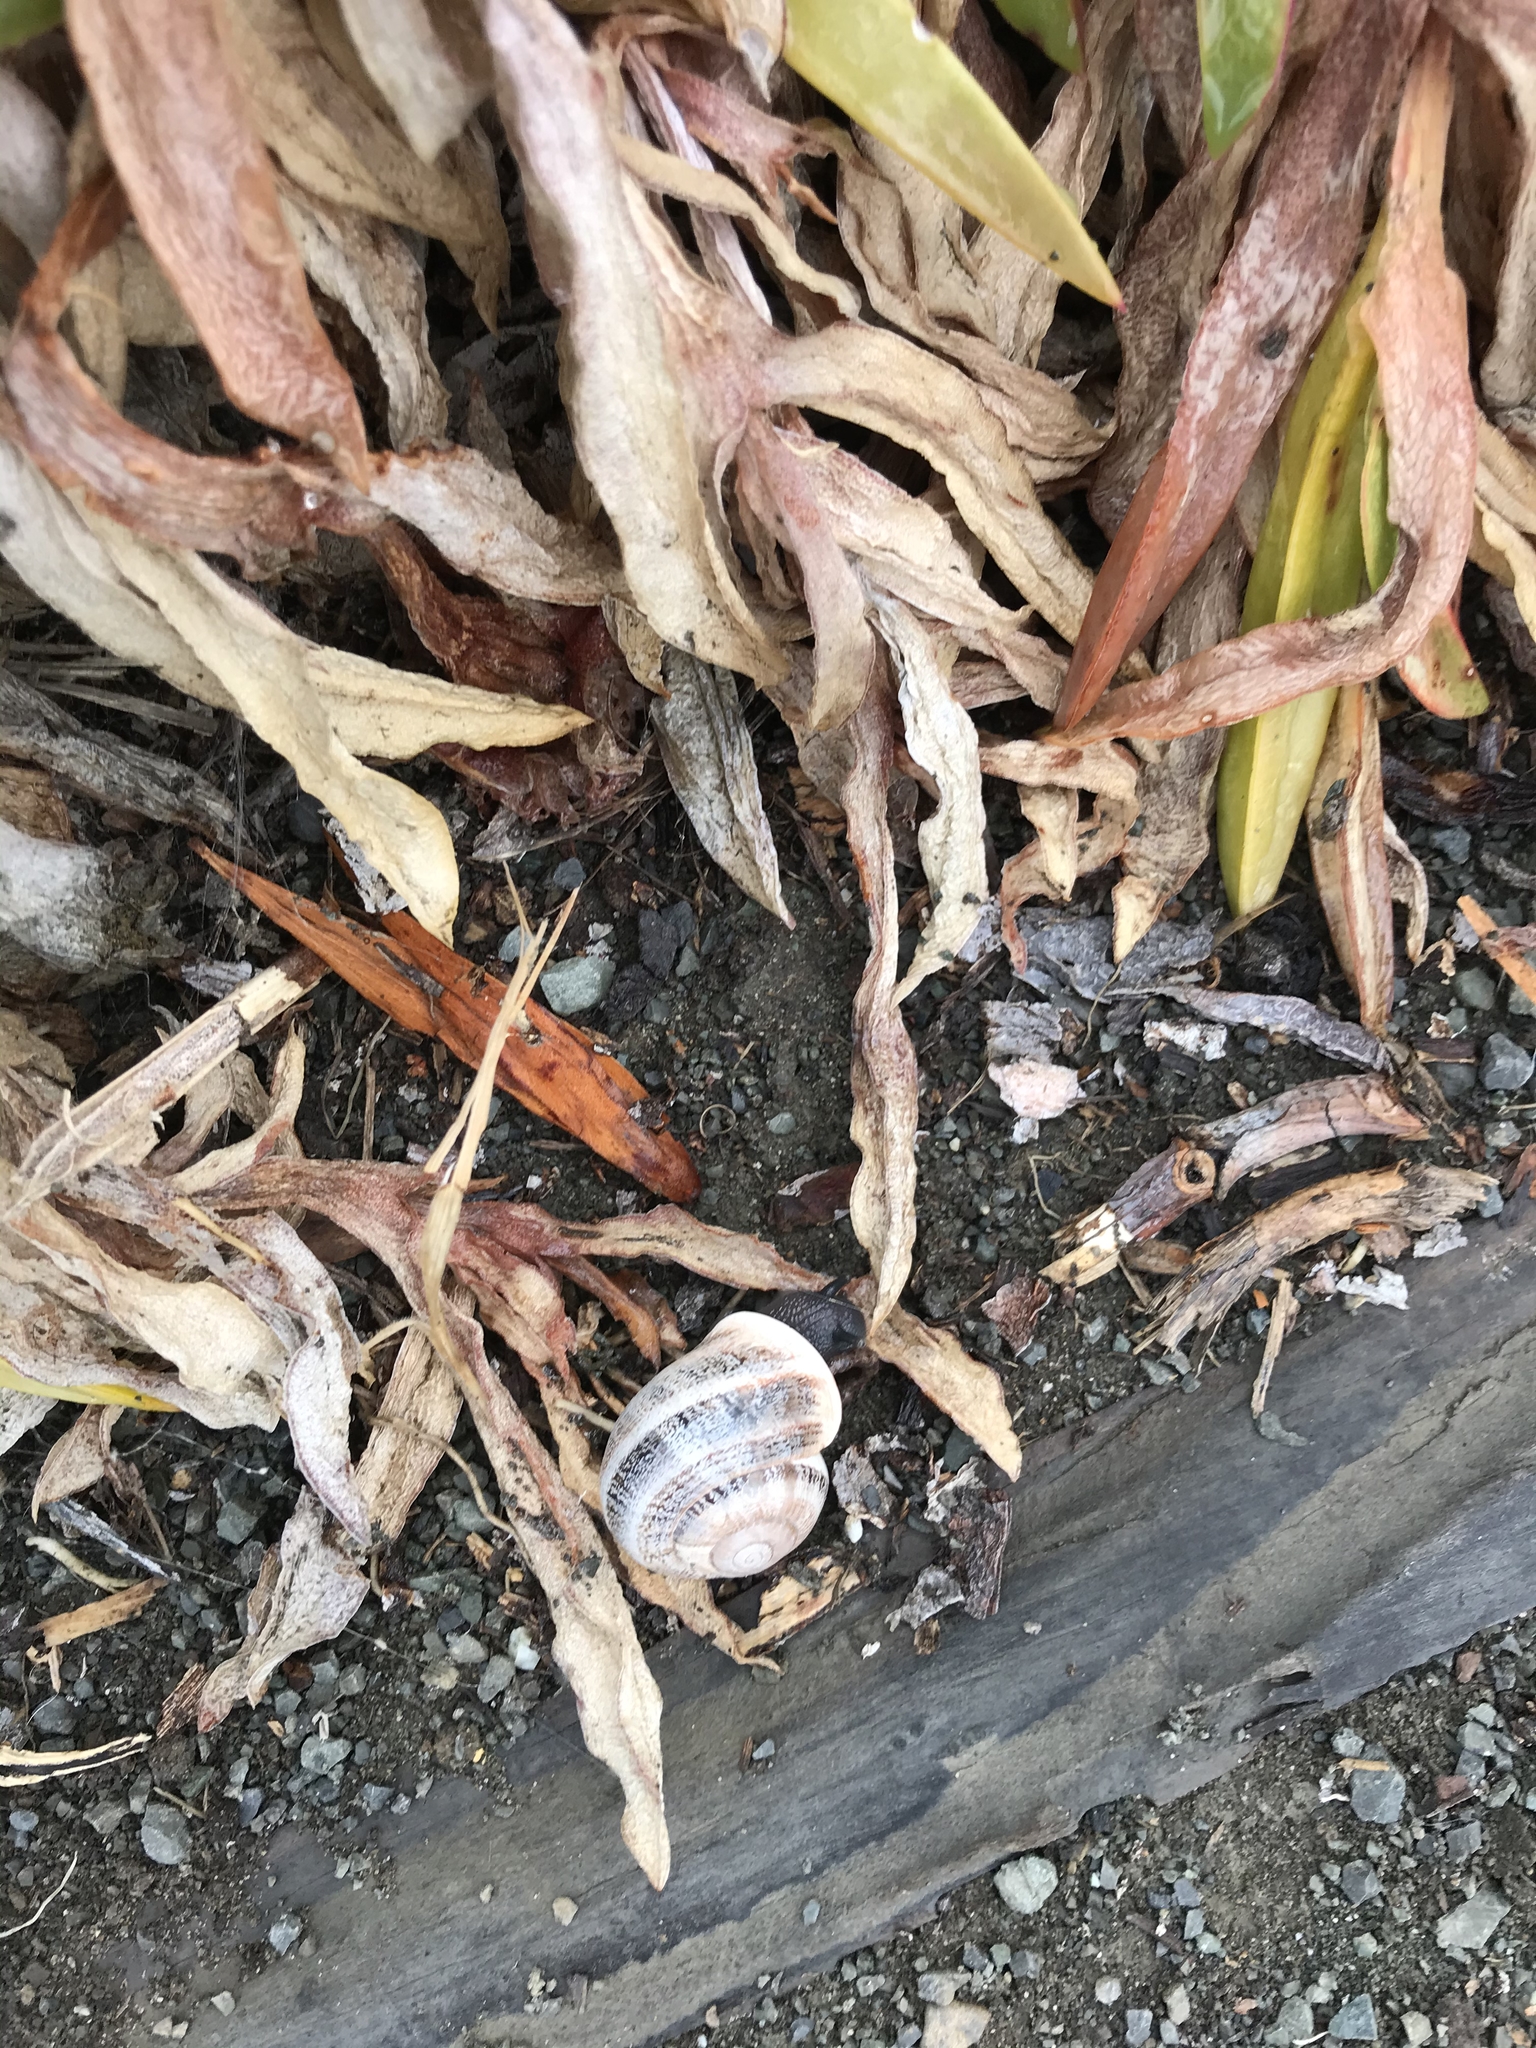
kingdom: Animalia
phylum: Mollusca
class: Gastropoda
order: Stylommatophora
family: Helicidae
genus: Otala
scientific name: Otala lactea
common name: Milk snail
